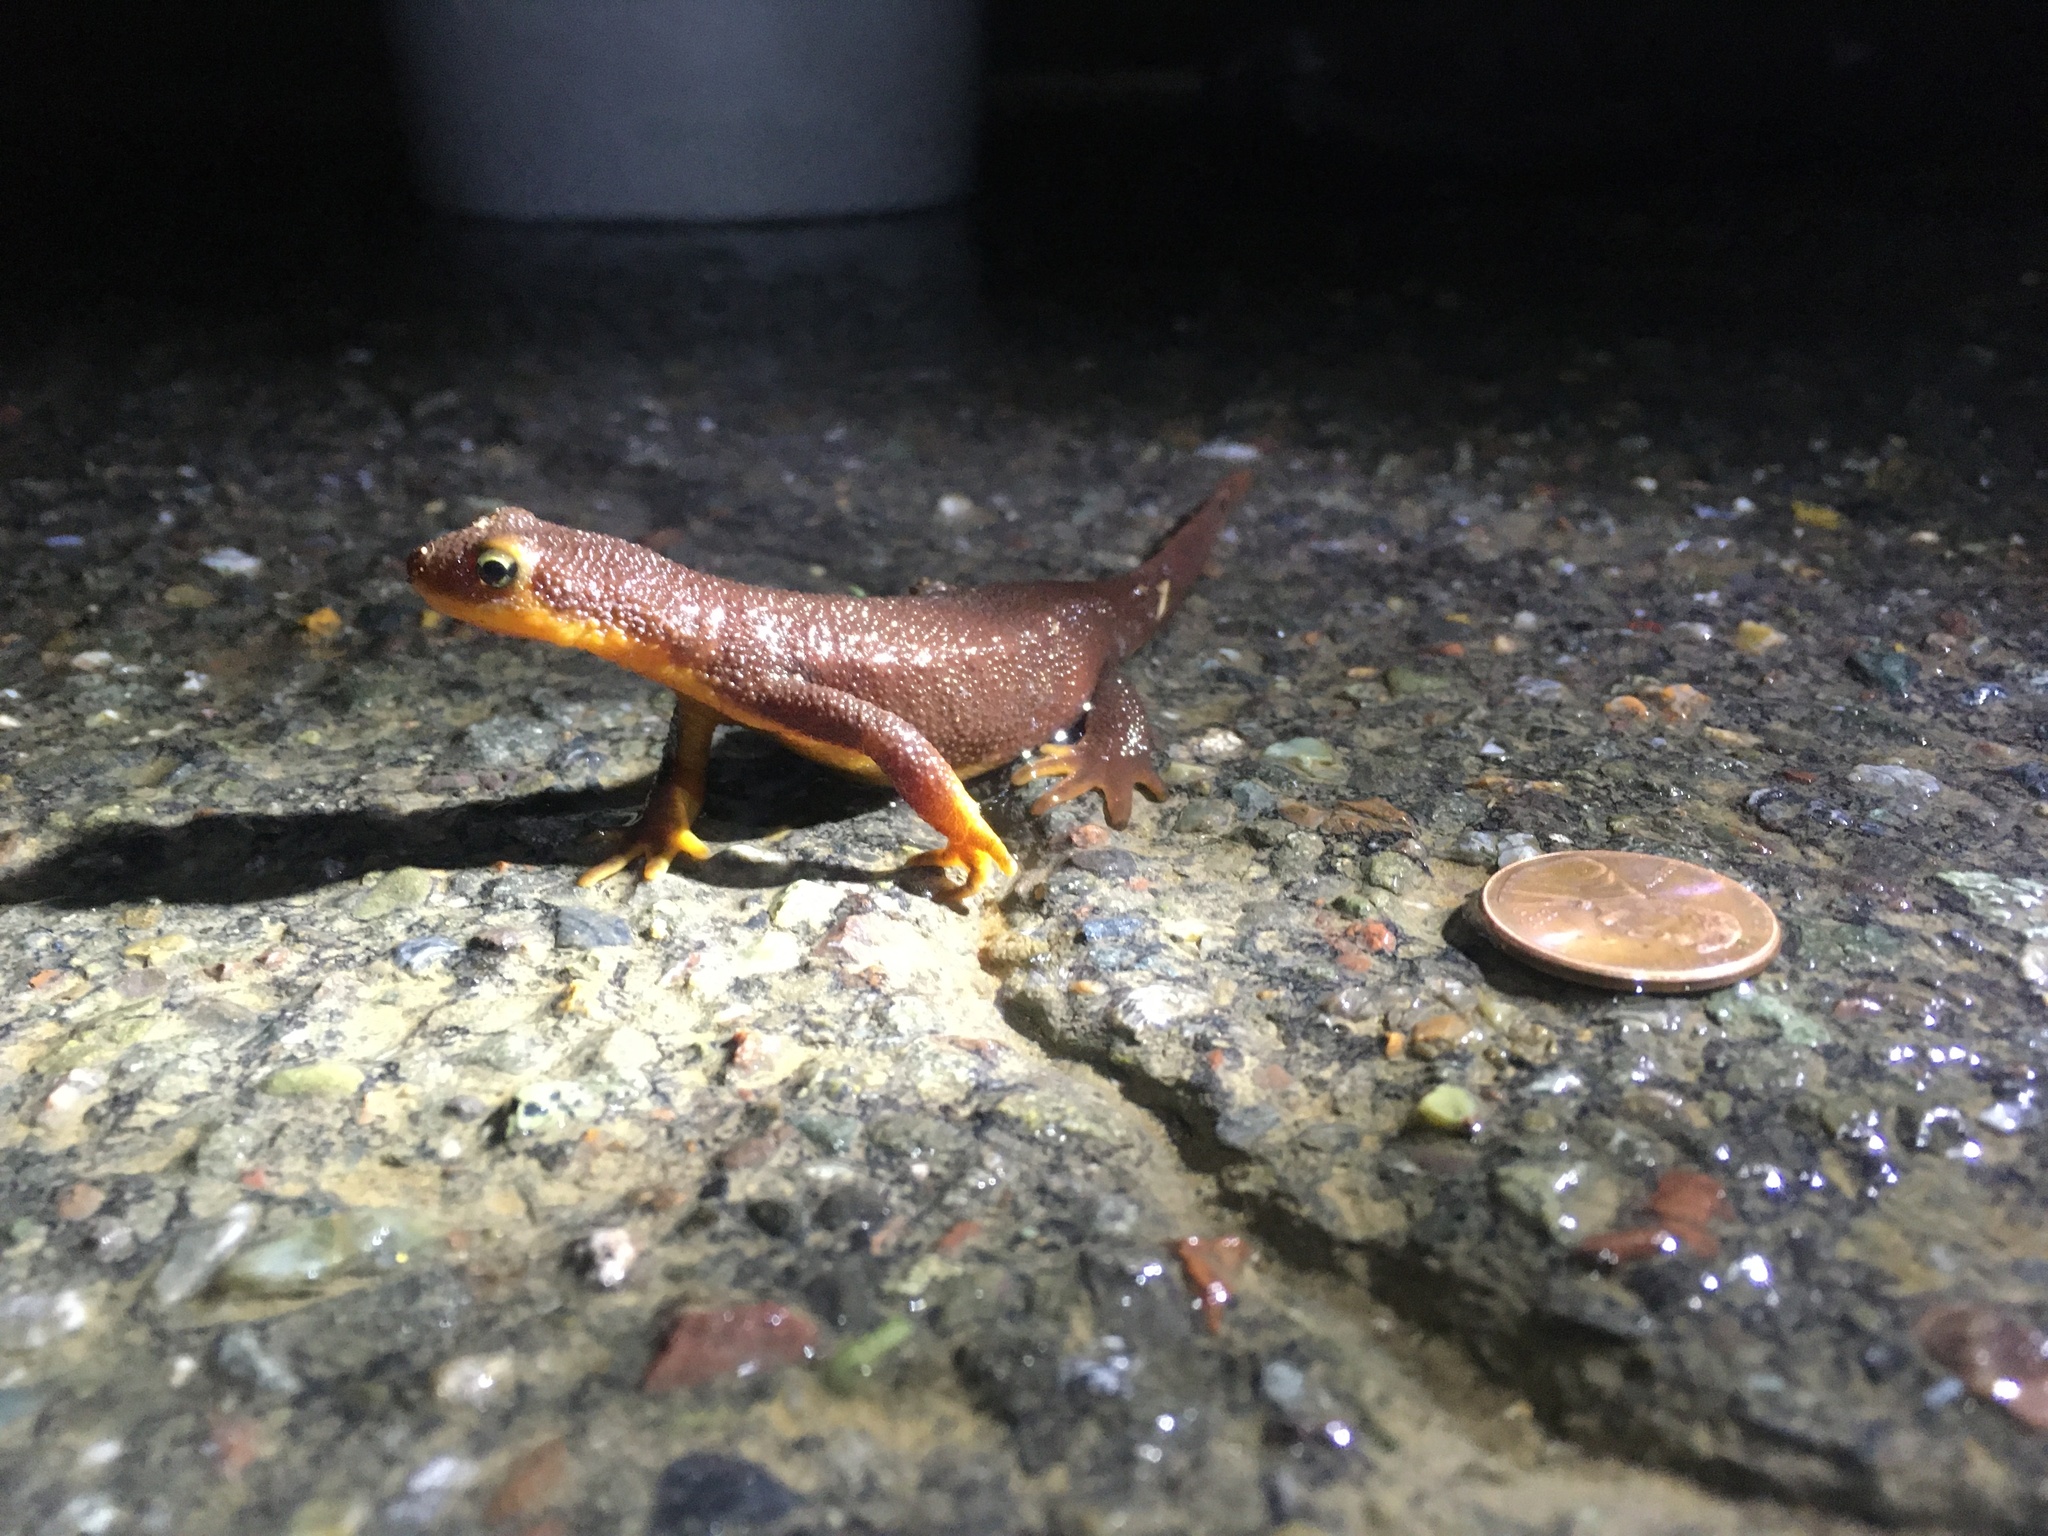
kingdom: Animalia
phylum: Chordata
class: Amphibia
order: Caudata
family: Salamandridae
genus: Taricha
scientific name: Taricha torosa
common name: California newt
